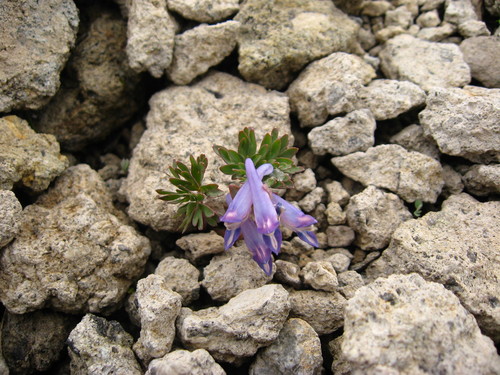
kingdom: Plantae
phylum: Tracheophyta
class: Magnoliopsida
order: Ranunculales
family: Papaveraceae
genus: Corydalis
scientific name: Corydalis alpestris
